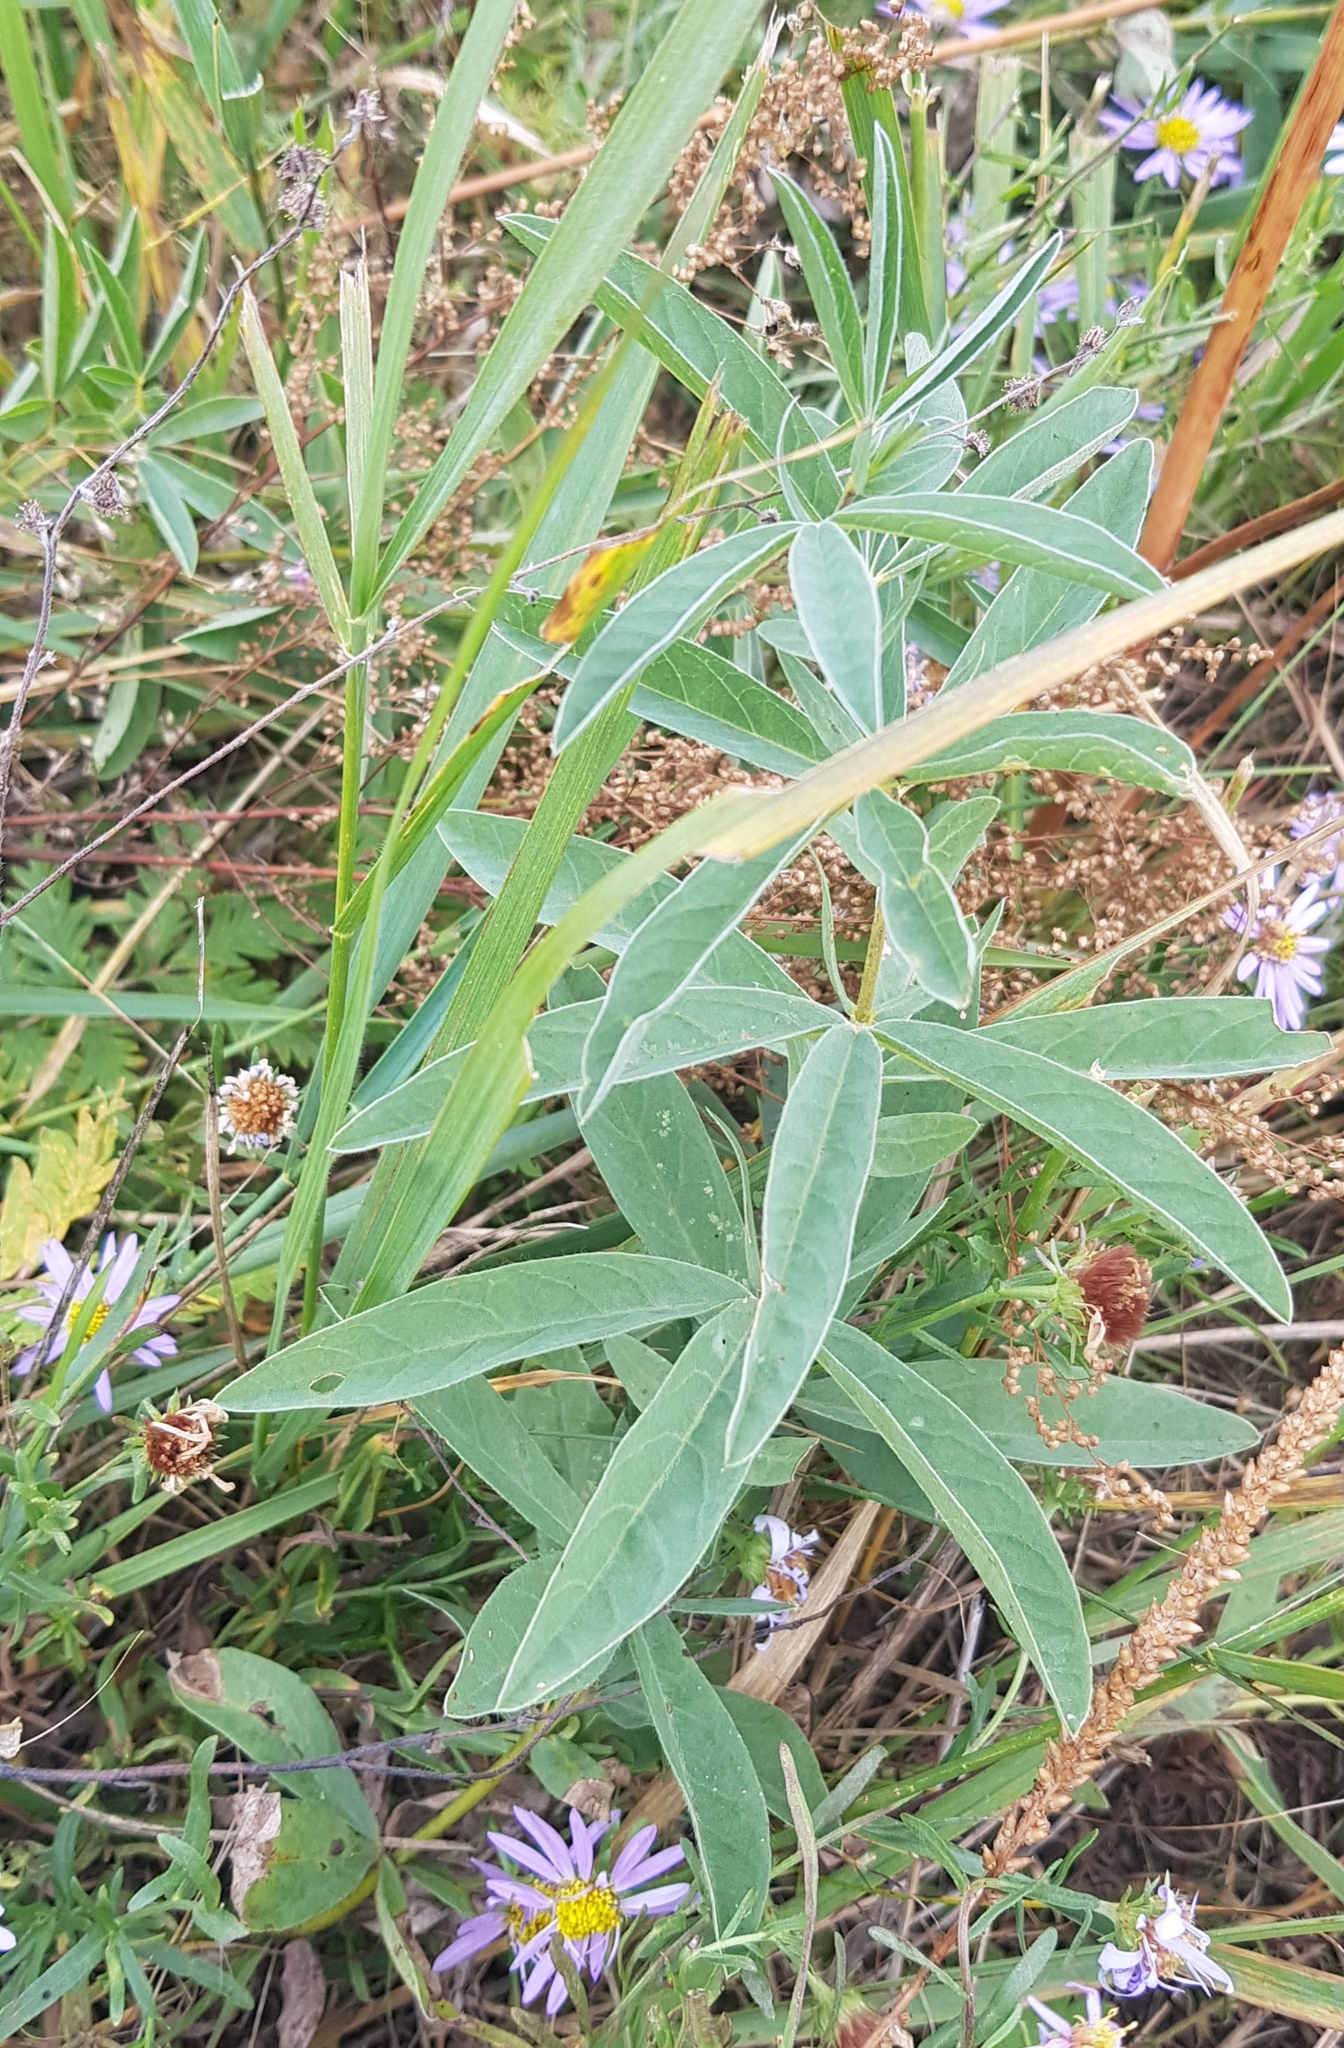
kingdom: Plantae
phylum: Tracheophyta
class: Magnoliopsida
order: Fabales
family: Fabaceae
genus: Thermopsis
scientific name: Thermopsis dahurica
